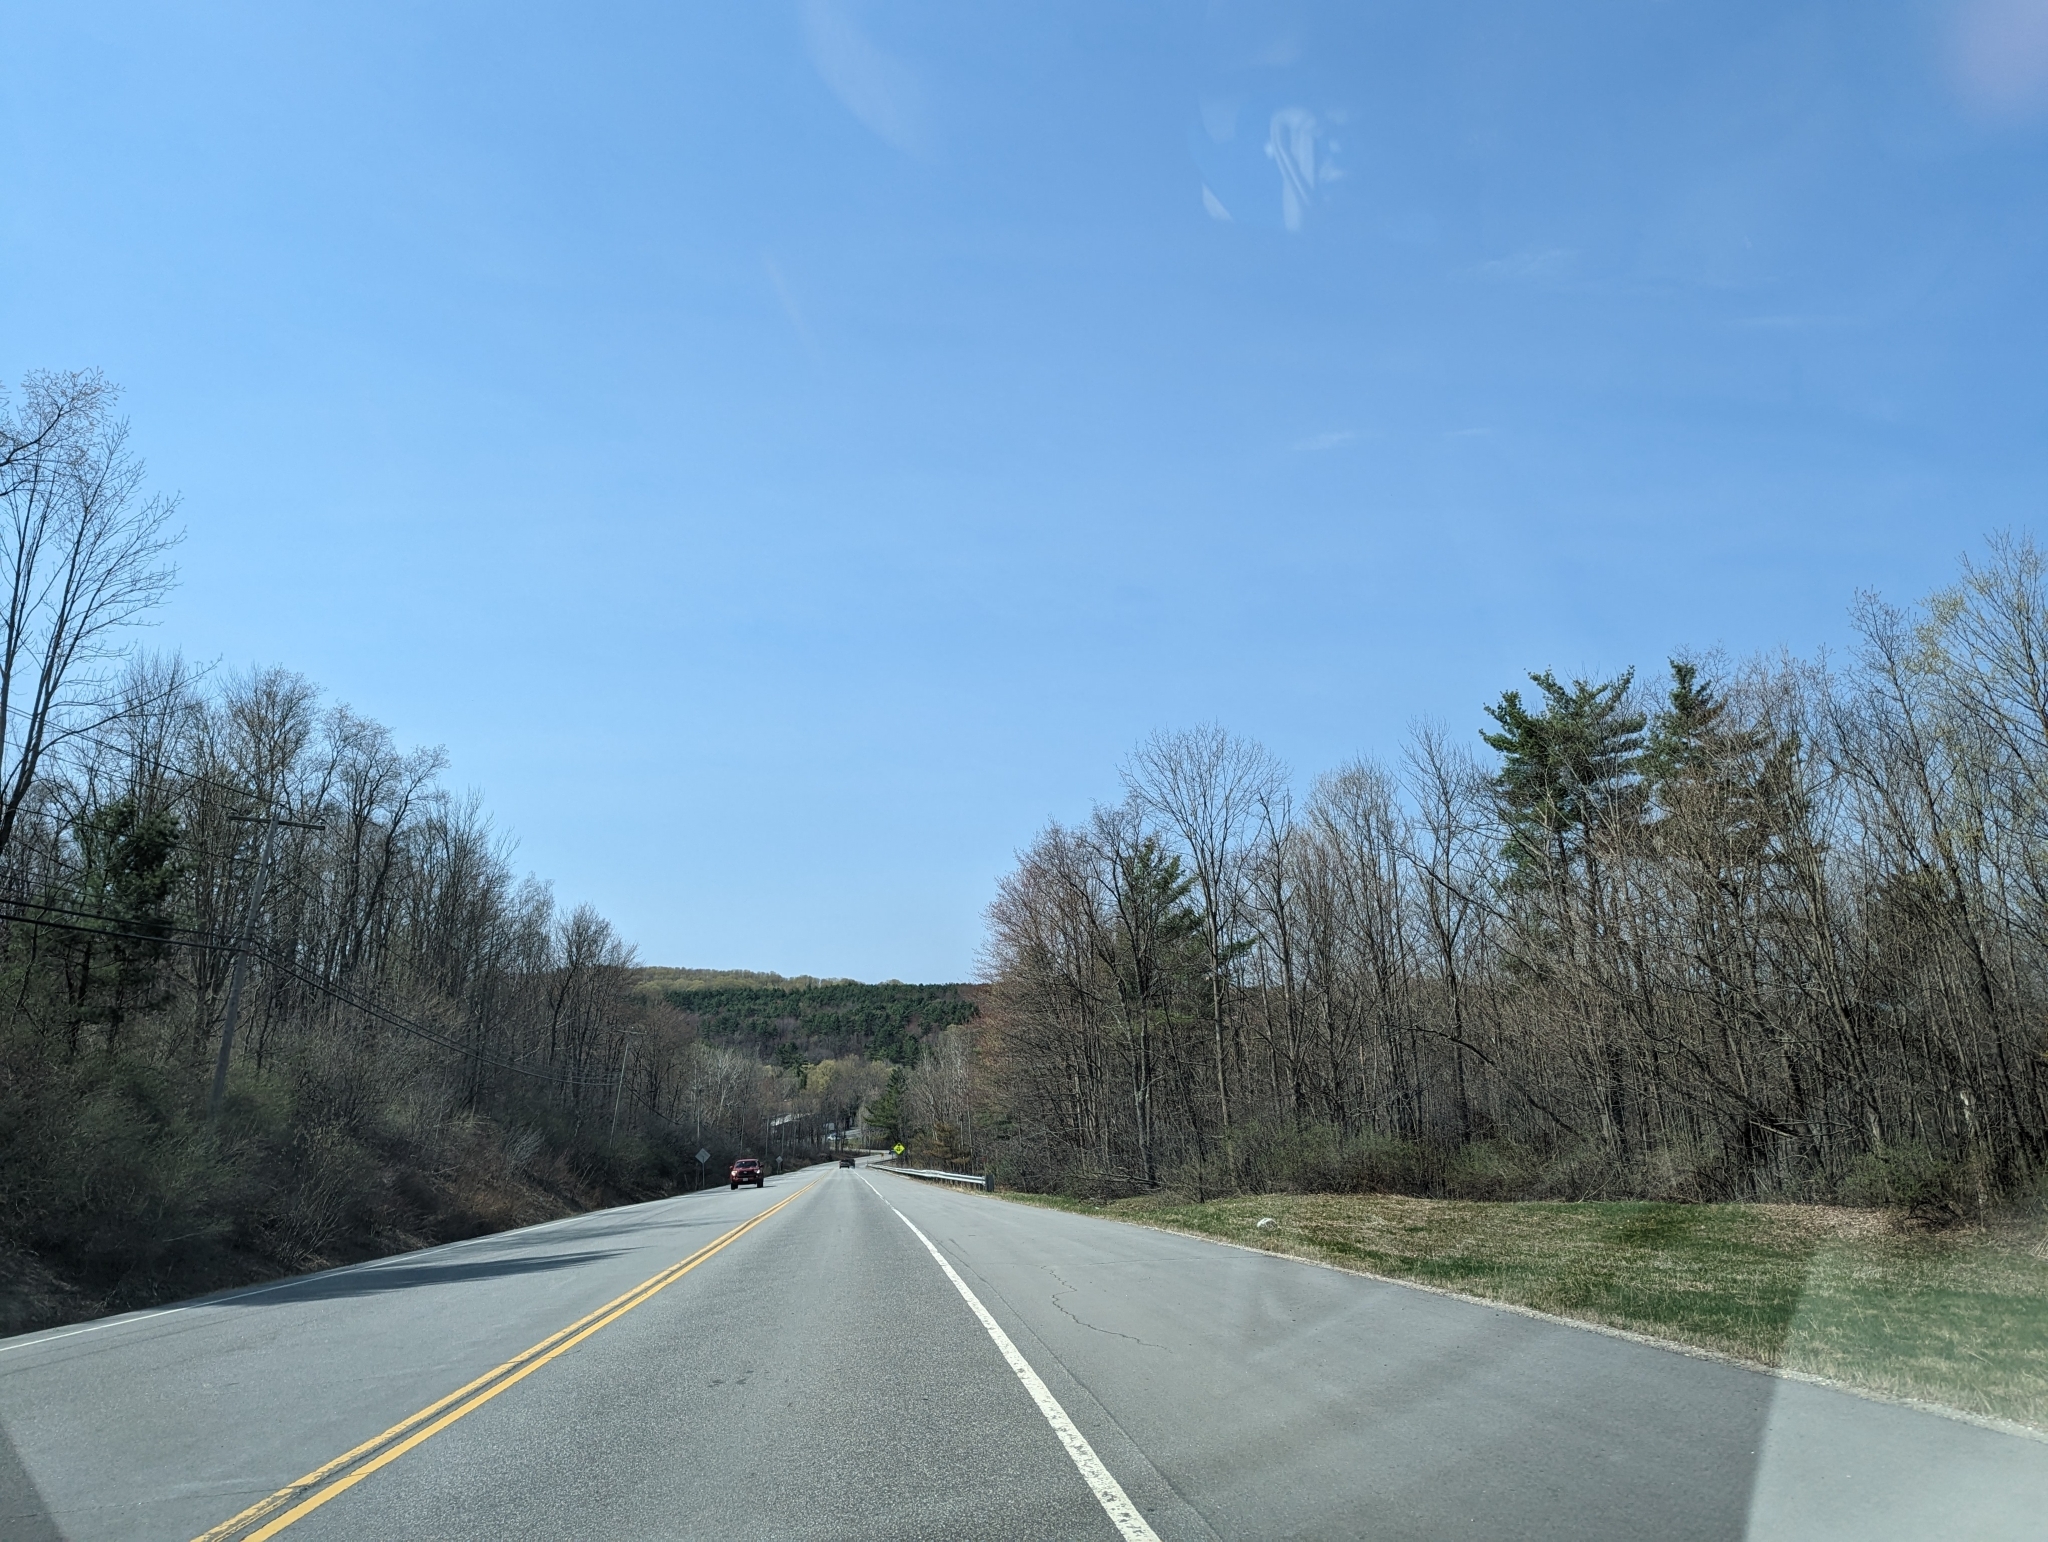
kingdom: Plantae
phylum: Tracheophyta
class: Pinopsida
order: Pinales
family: Pinaceae
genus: Pinus
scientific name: Pinus strobus
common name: Weymouth pine
